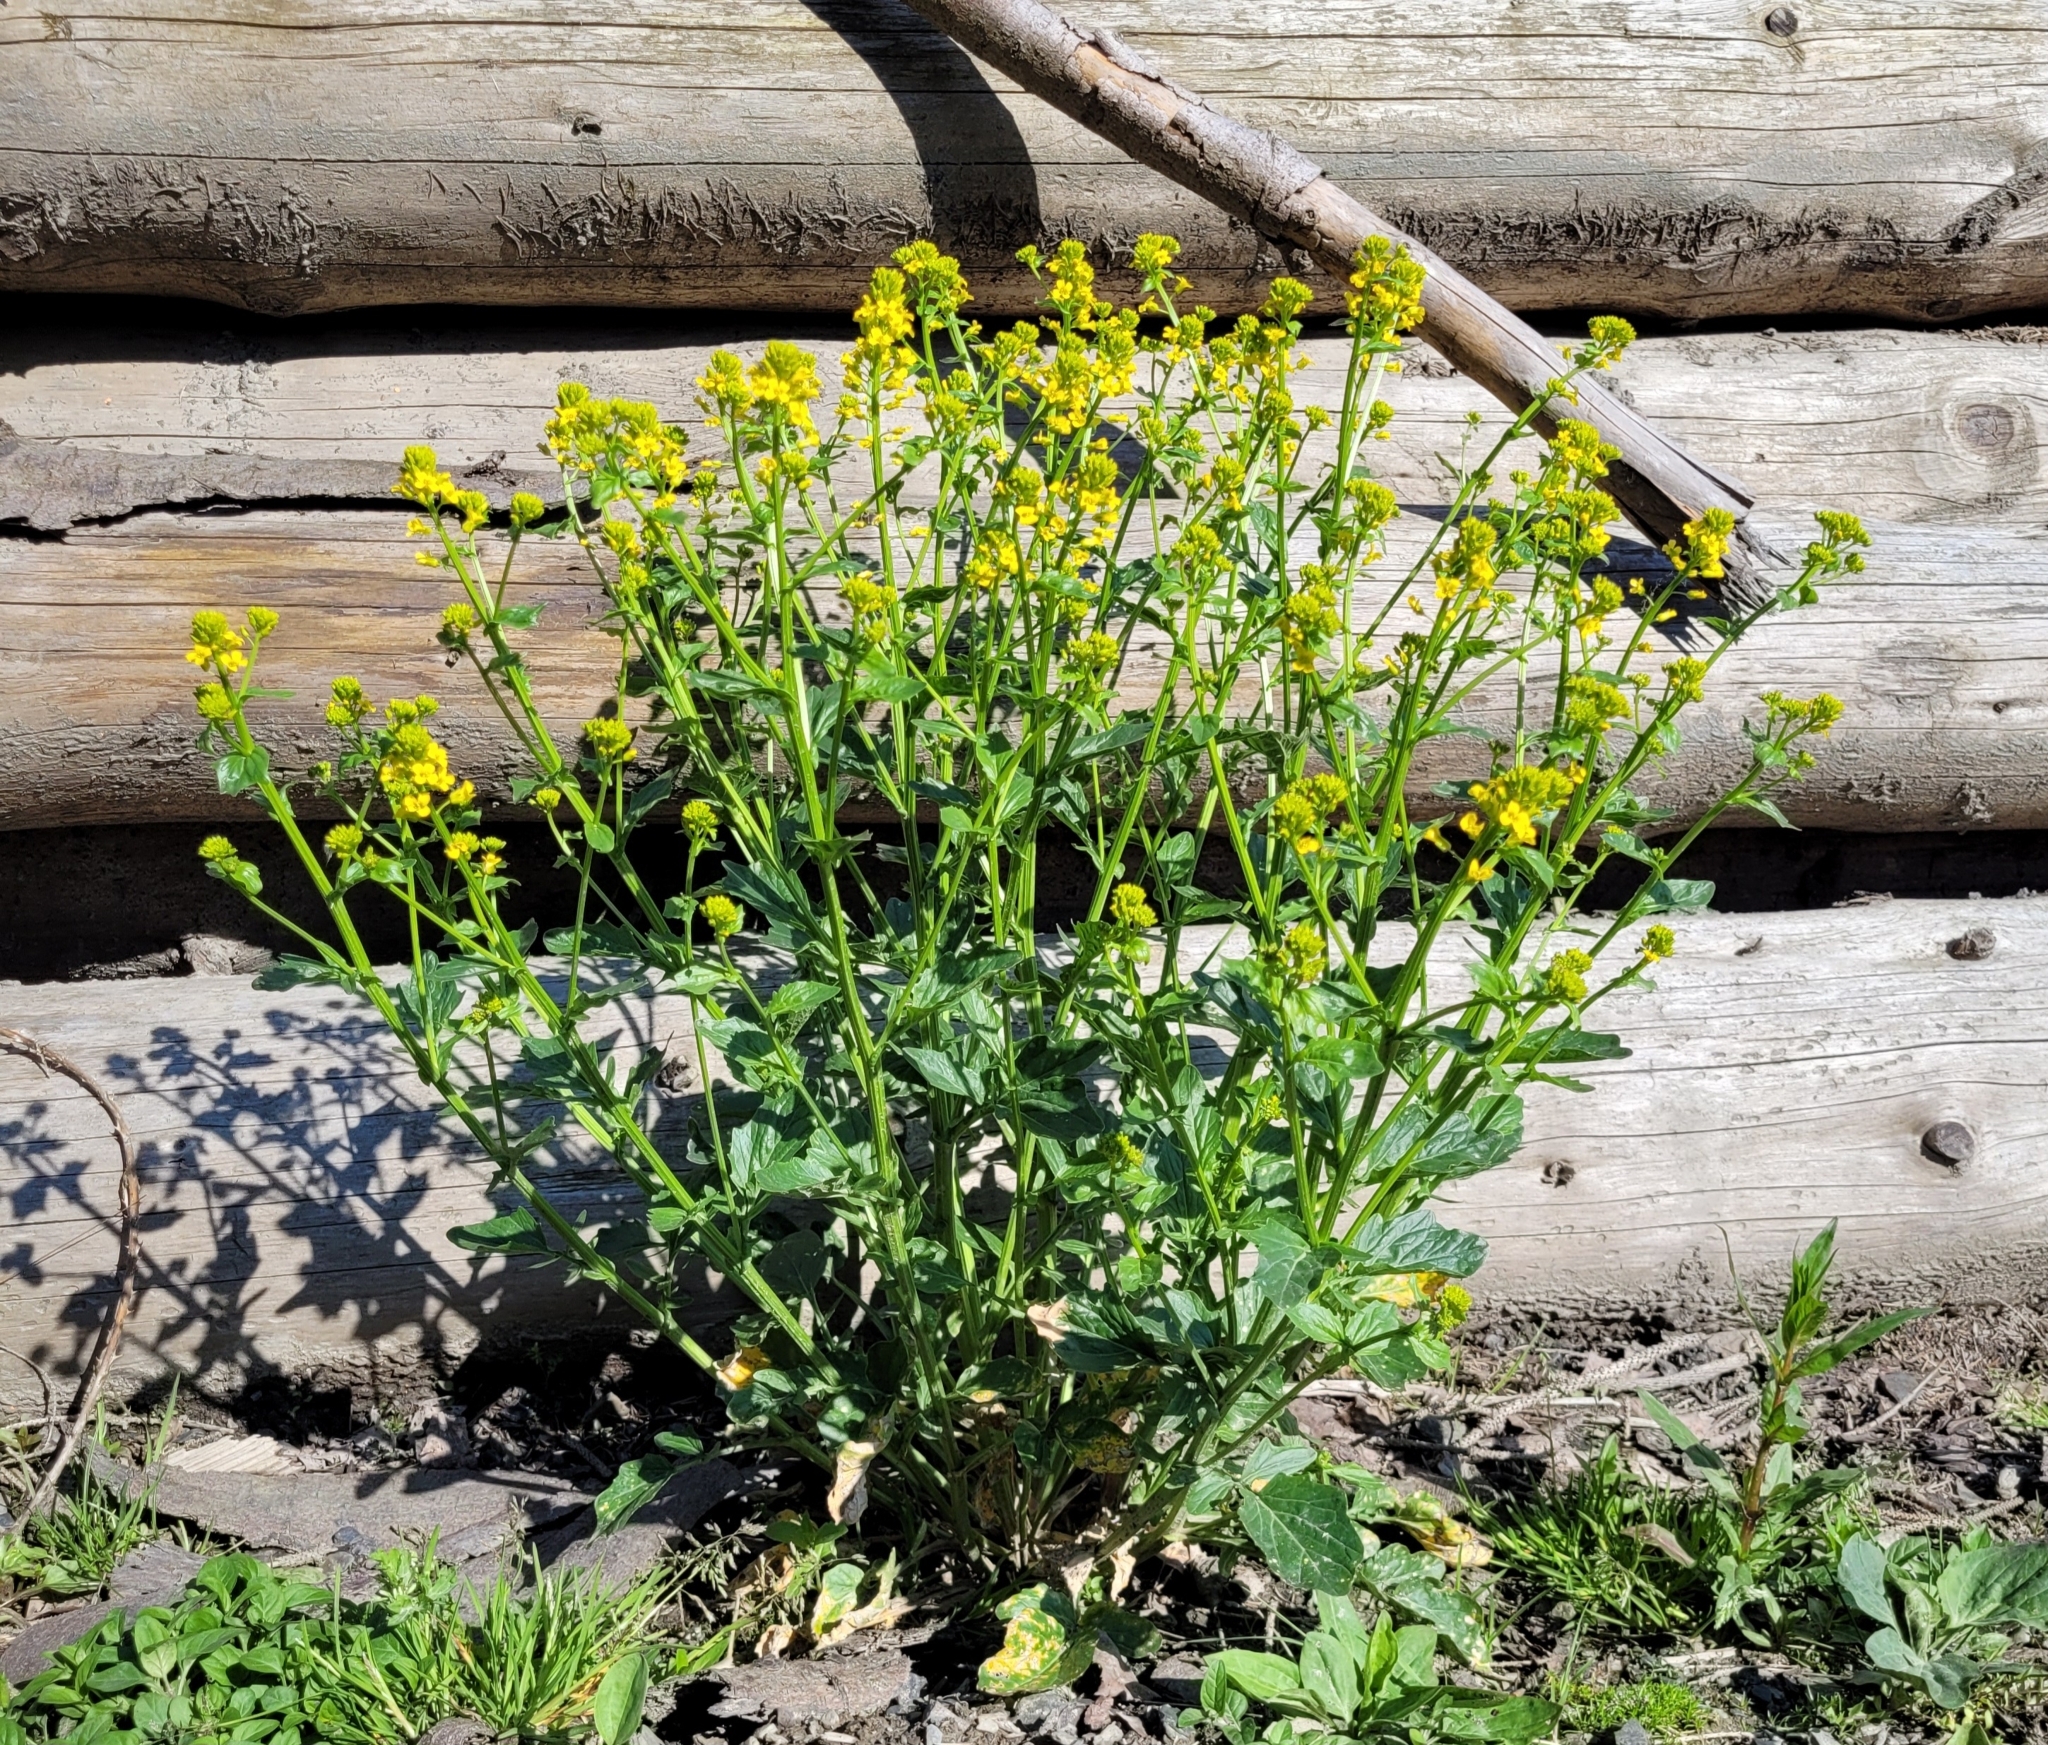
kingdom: Plantae
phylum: Tracheophyta
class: Magnoliopsida
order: Brassicales
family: Brassicaceae
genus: Barbarea
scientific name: Barbarea vulgaris
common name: Cressy-greens
